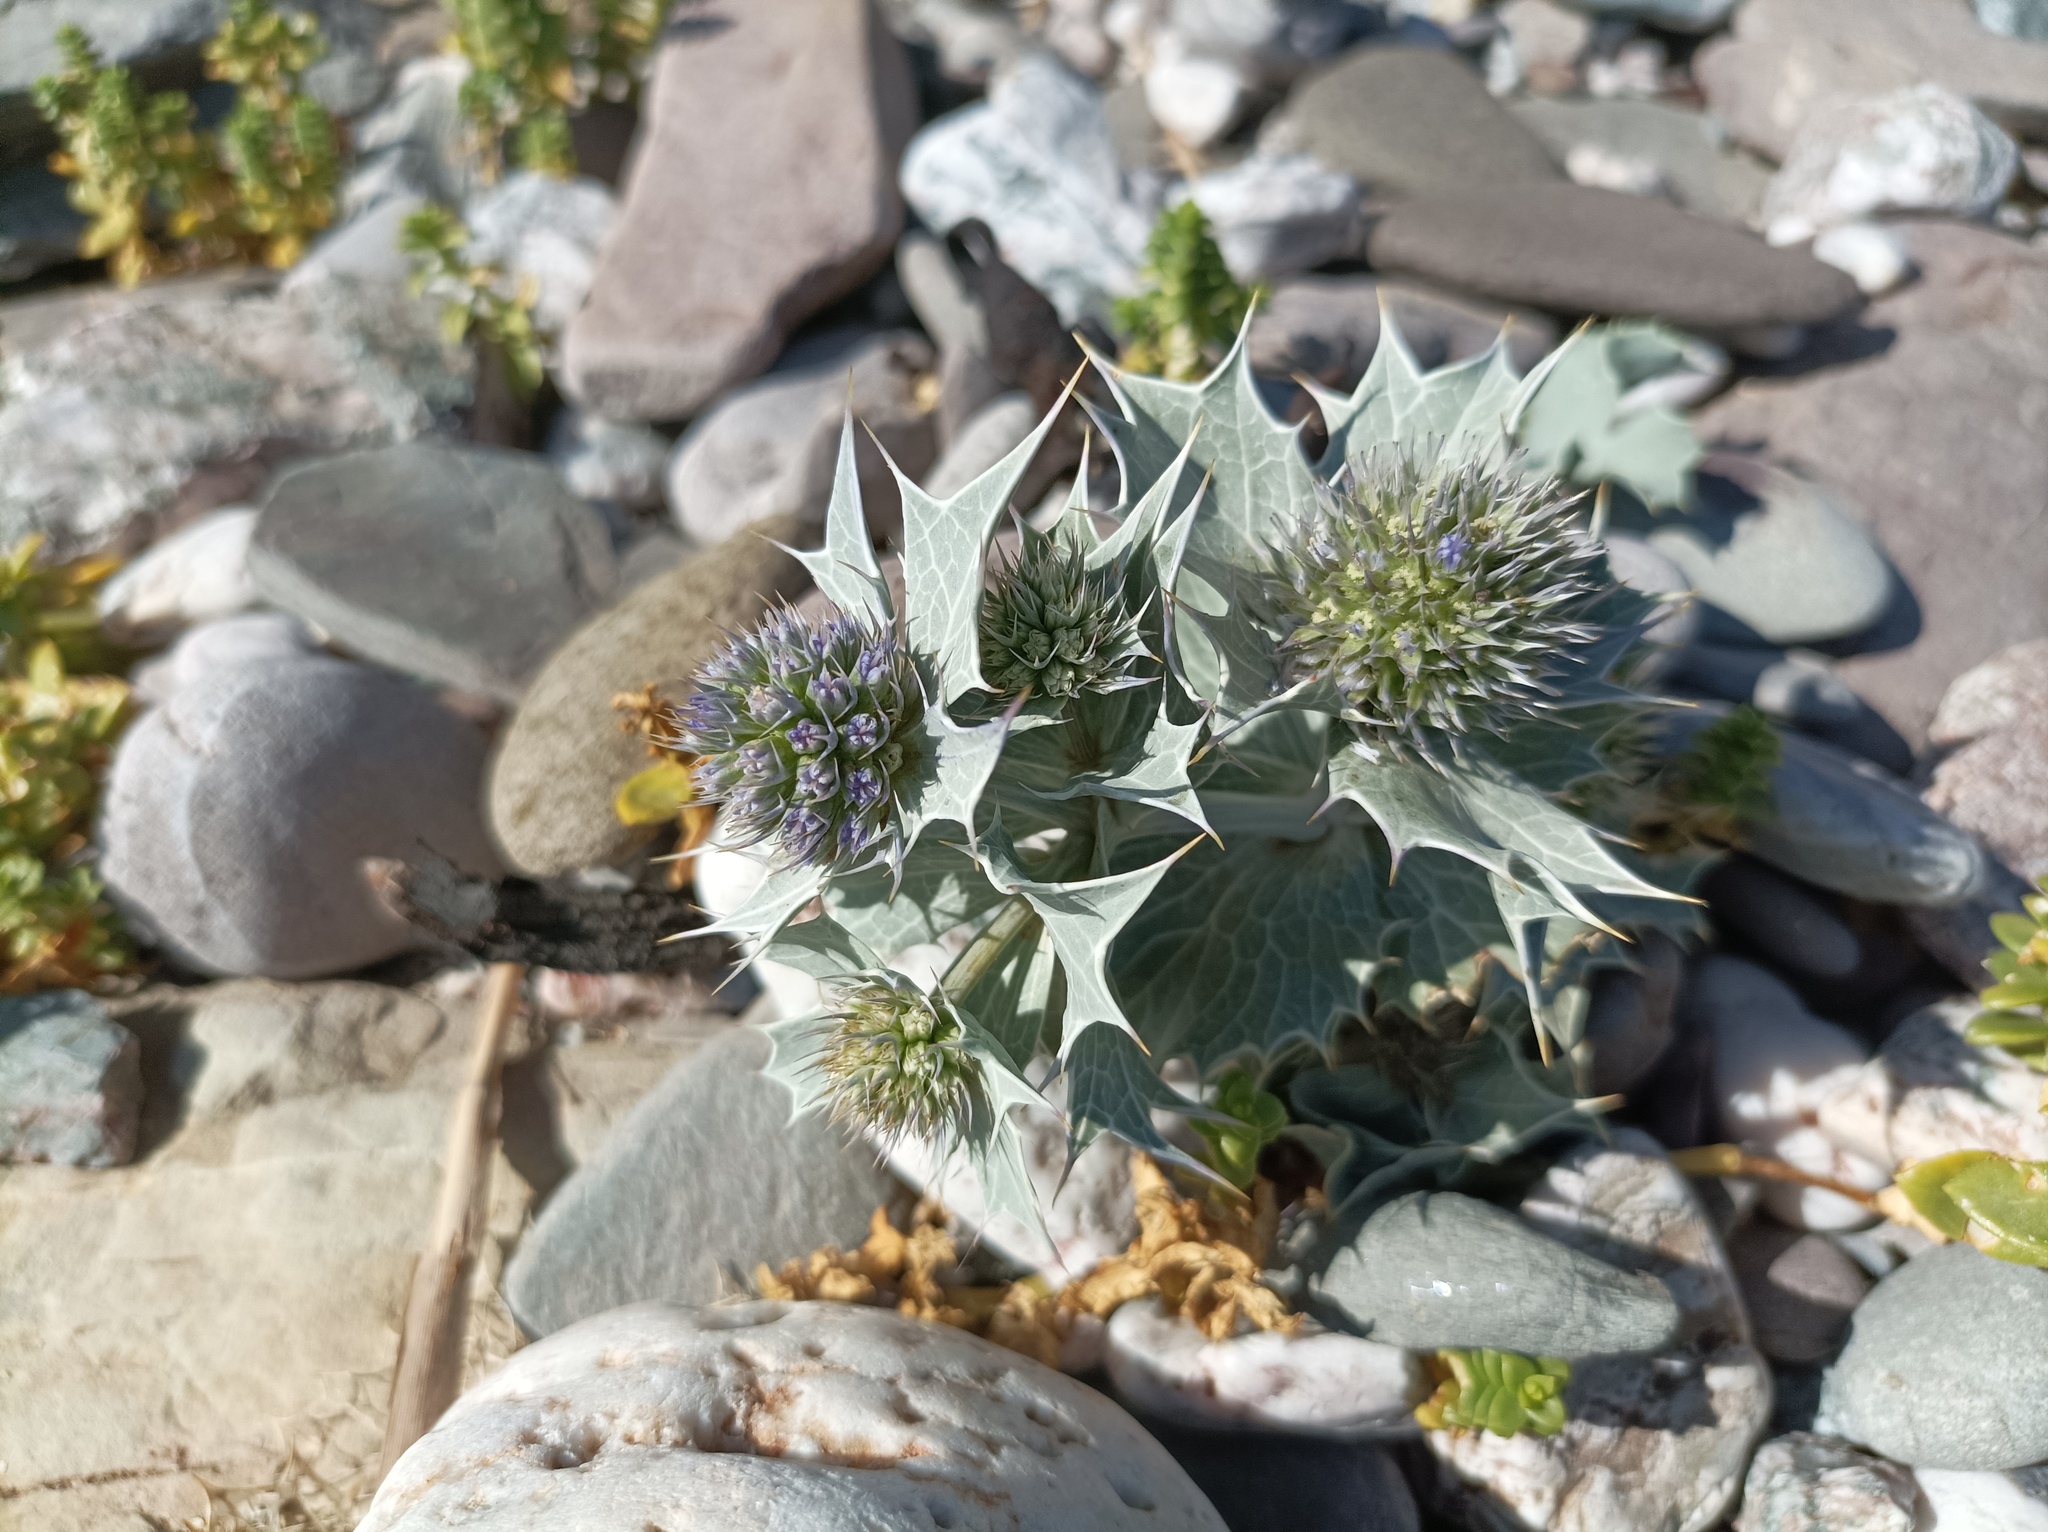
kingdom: Plantae
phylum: Tracheophyta
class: Magnoliopsida
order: Apiales
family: Apiaceae
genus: Eryngium
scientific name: Eryngium maritimum
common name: Sea-holly
